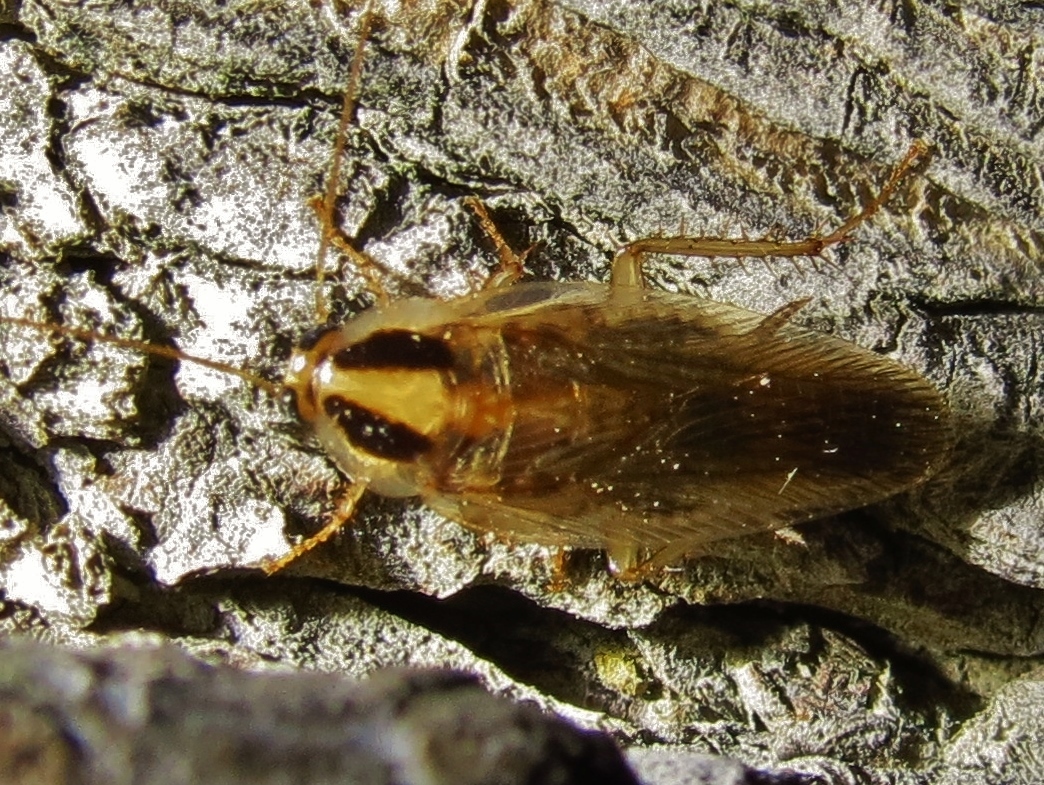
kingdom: Animalia
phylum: Arthropoda
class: Insecta
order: Blattodea
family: Ectobiidae
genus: Blattella
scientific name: Blattella vaga
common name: Field cockroach
